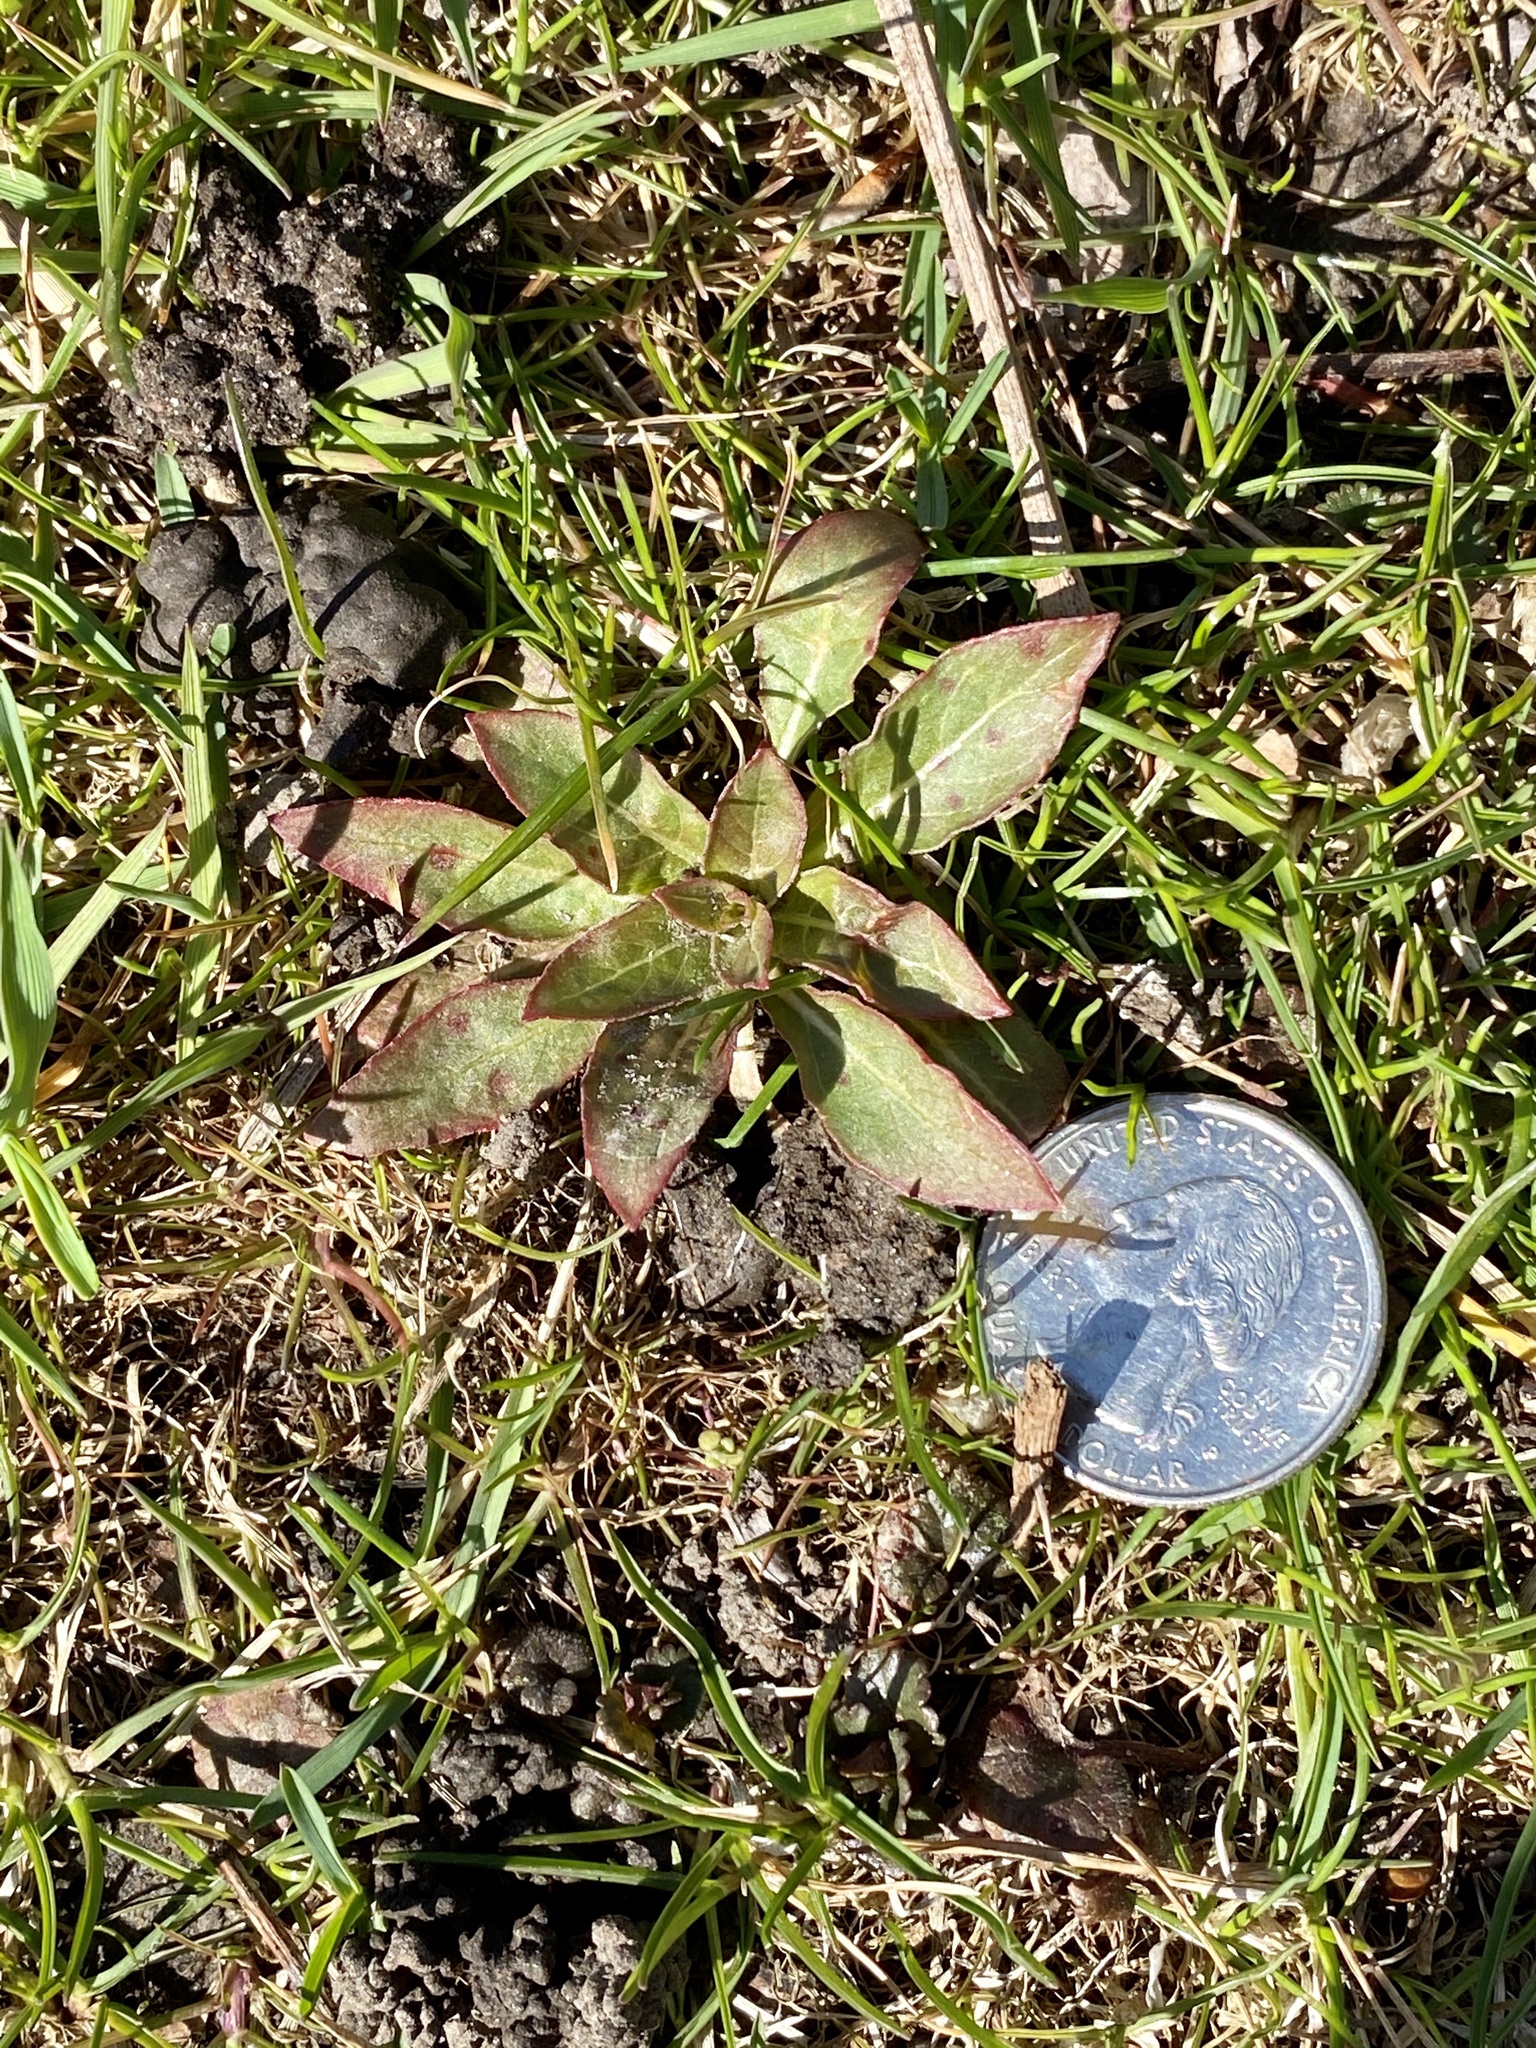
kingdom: Plantae
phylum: Tracheophyta
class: Magnoliopsida
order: Myrtales
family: Onagraceae
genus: Oenothera
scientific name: Oenothera biennis
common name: Common evening-primrose
